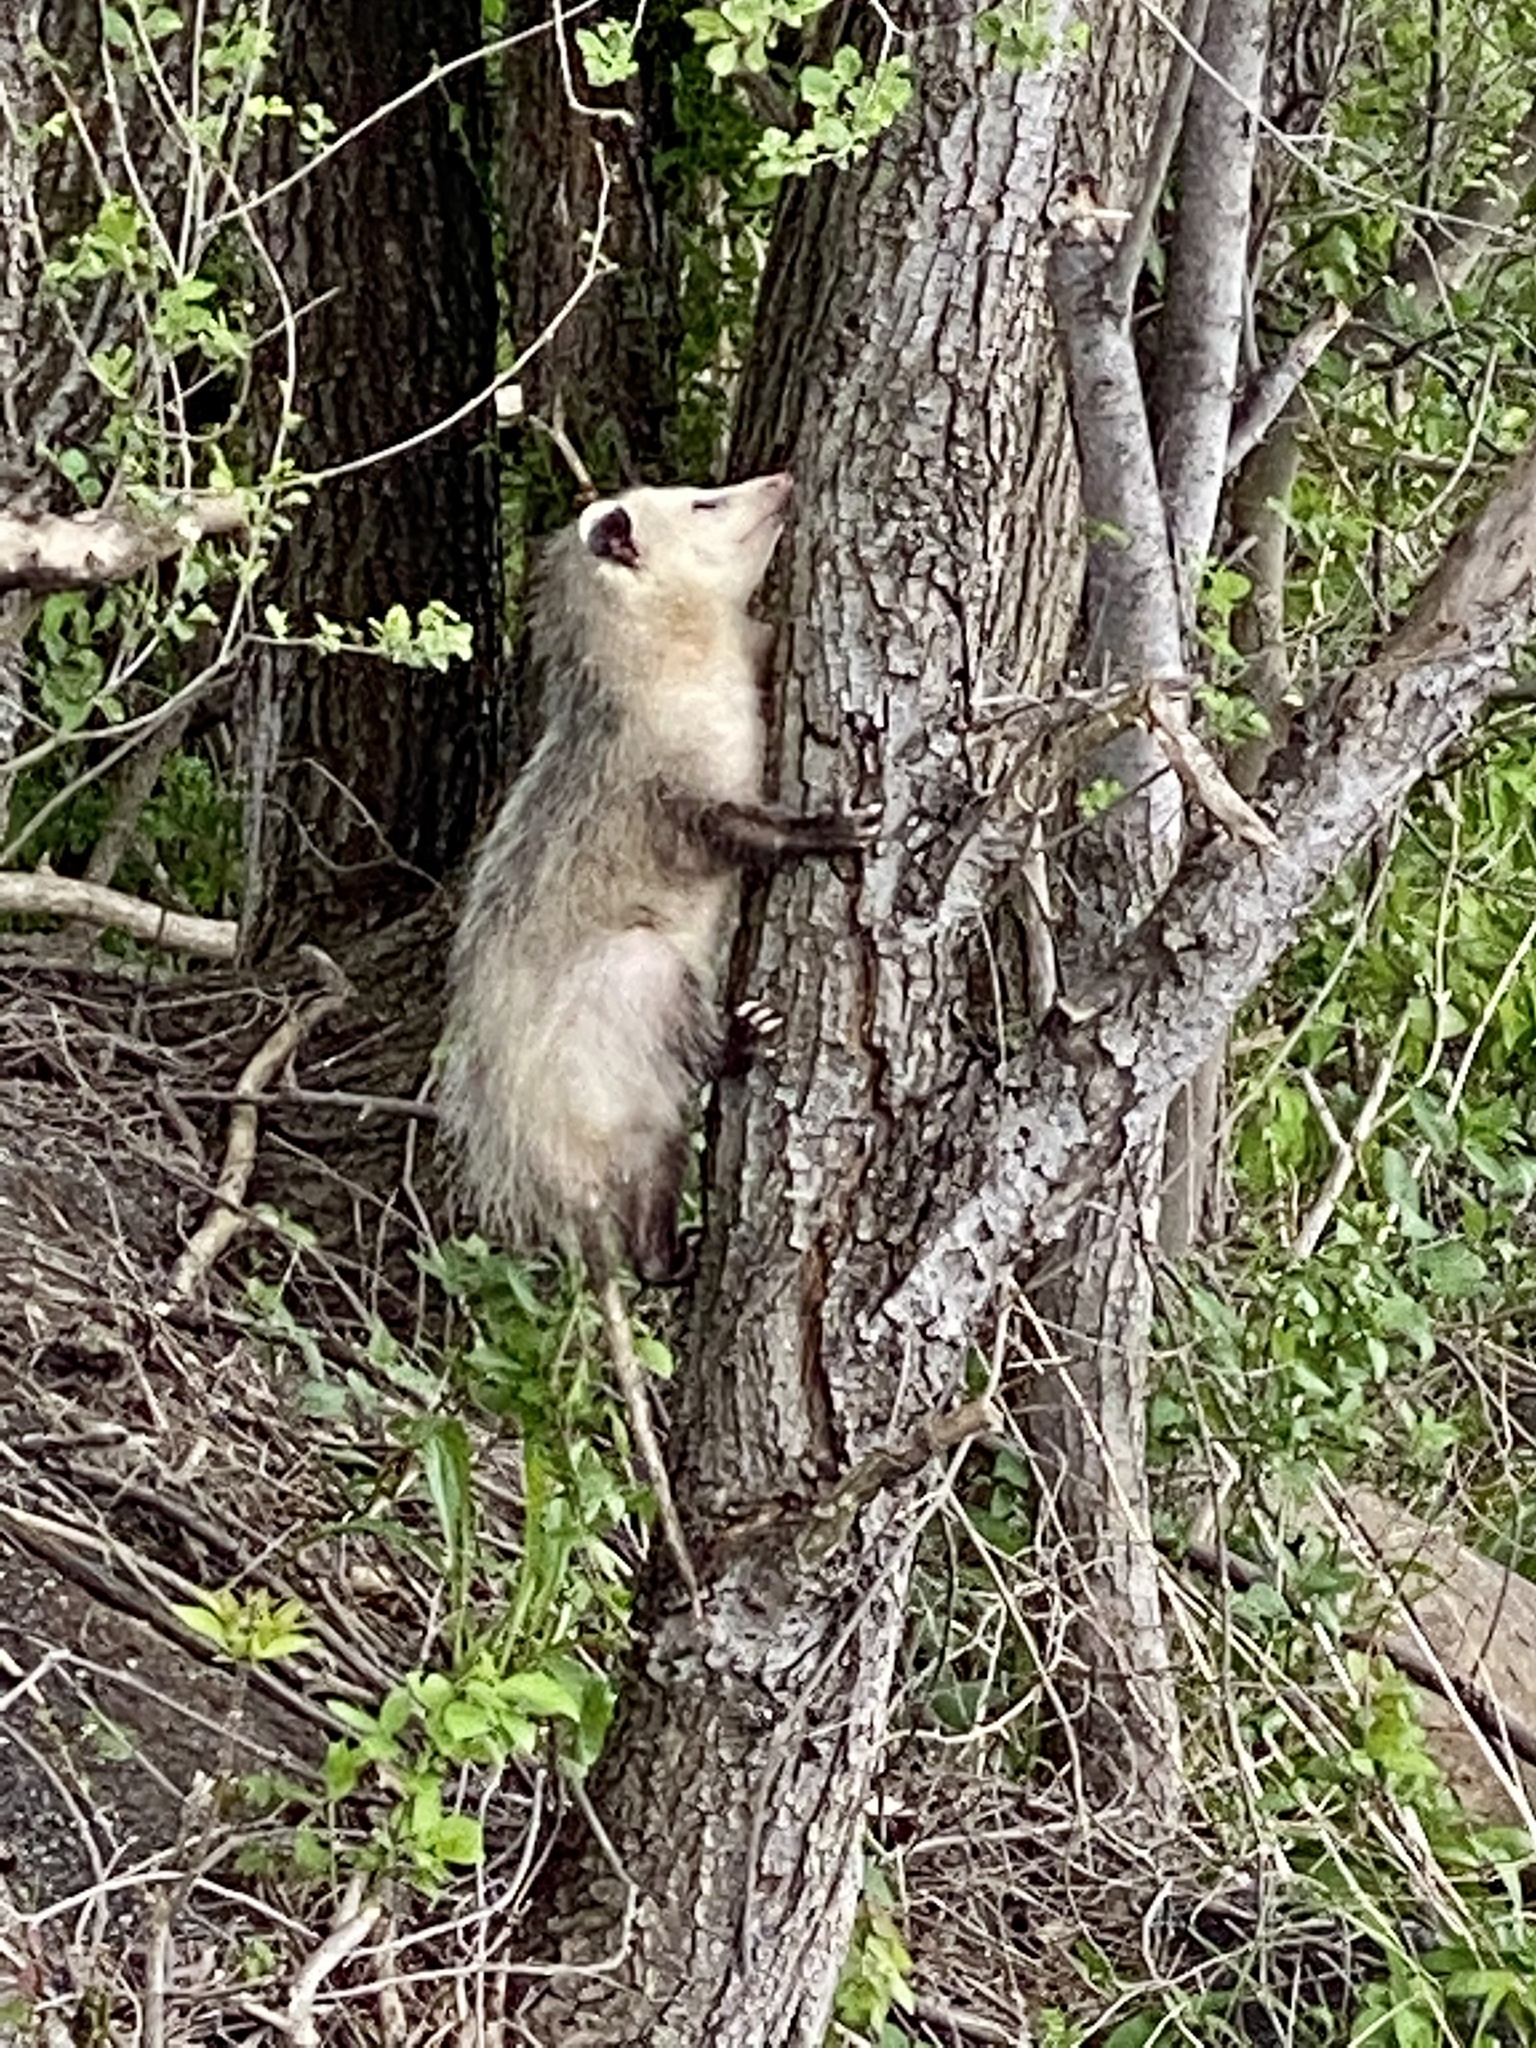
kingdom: Animalia
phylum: Chordata
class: Mammalia
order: Didelphimorphia
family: Didelphidae
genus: Didelphis
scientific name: Didelphis virginiana
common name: Virginia opossum
